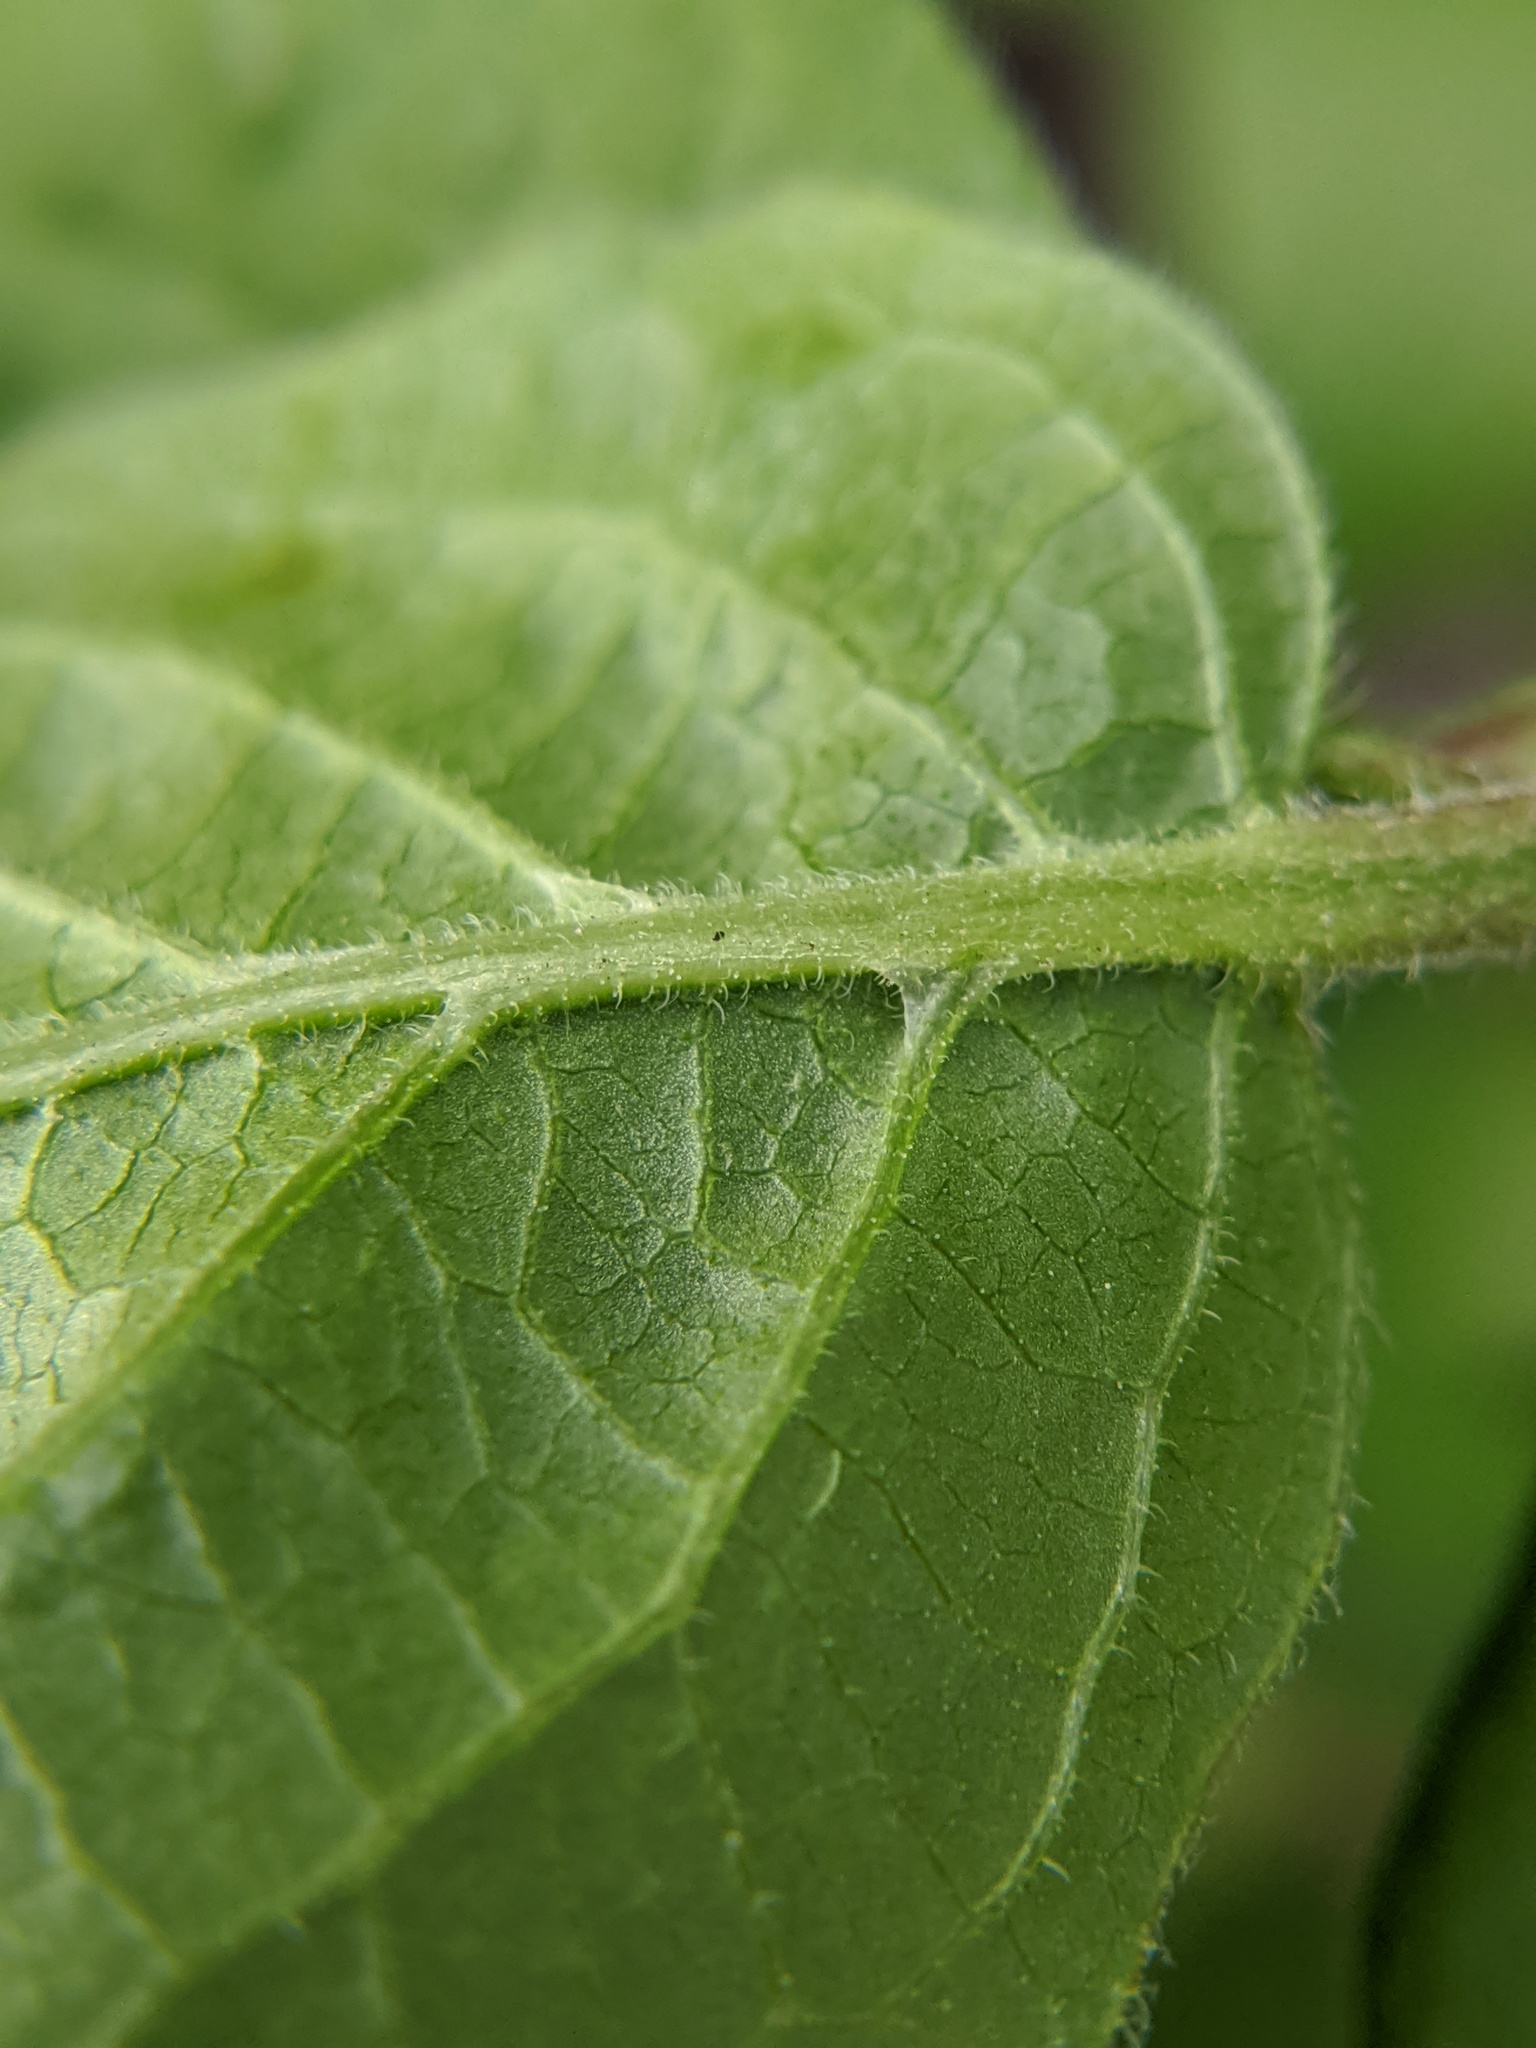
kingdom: Plantae
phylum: Tracheophyta
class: Magnoliopsida
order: Dipsacales
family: Caprifoliaceae
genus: Lonicera
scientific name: Lonicera maackii
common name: Amur honeysuckle
